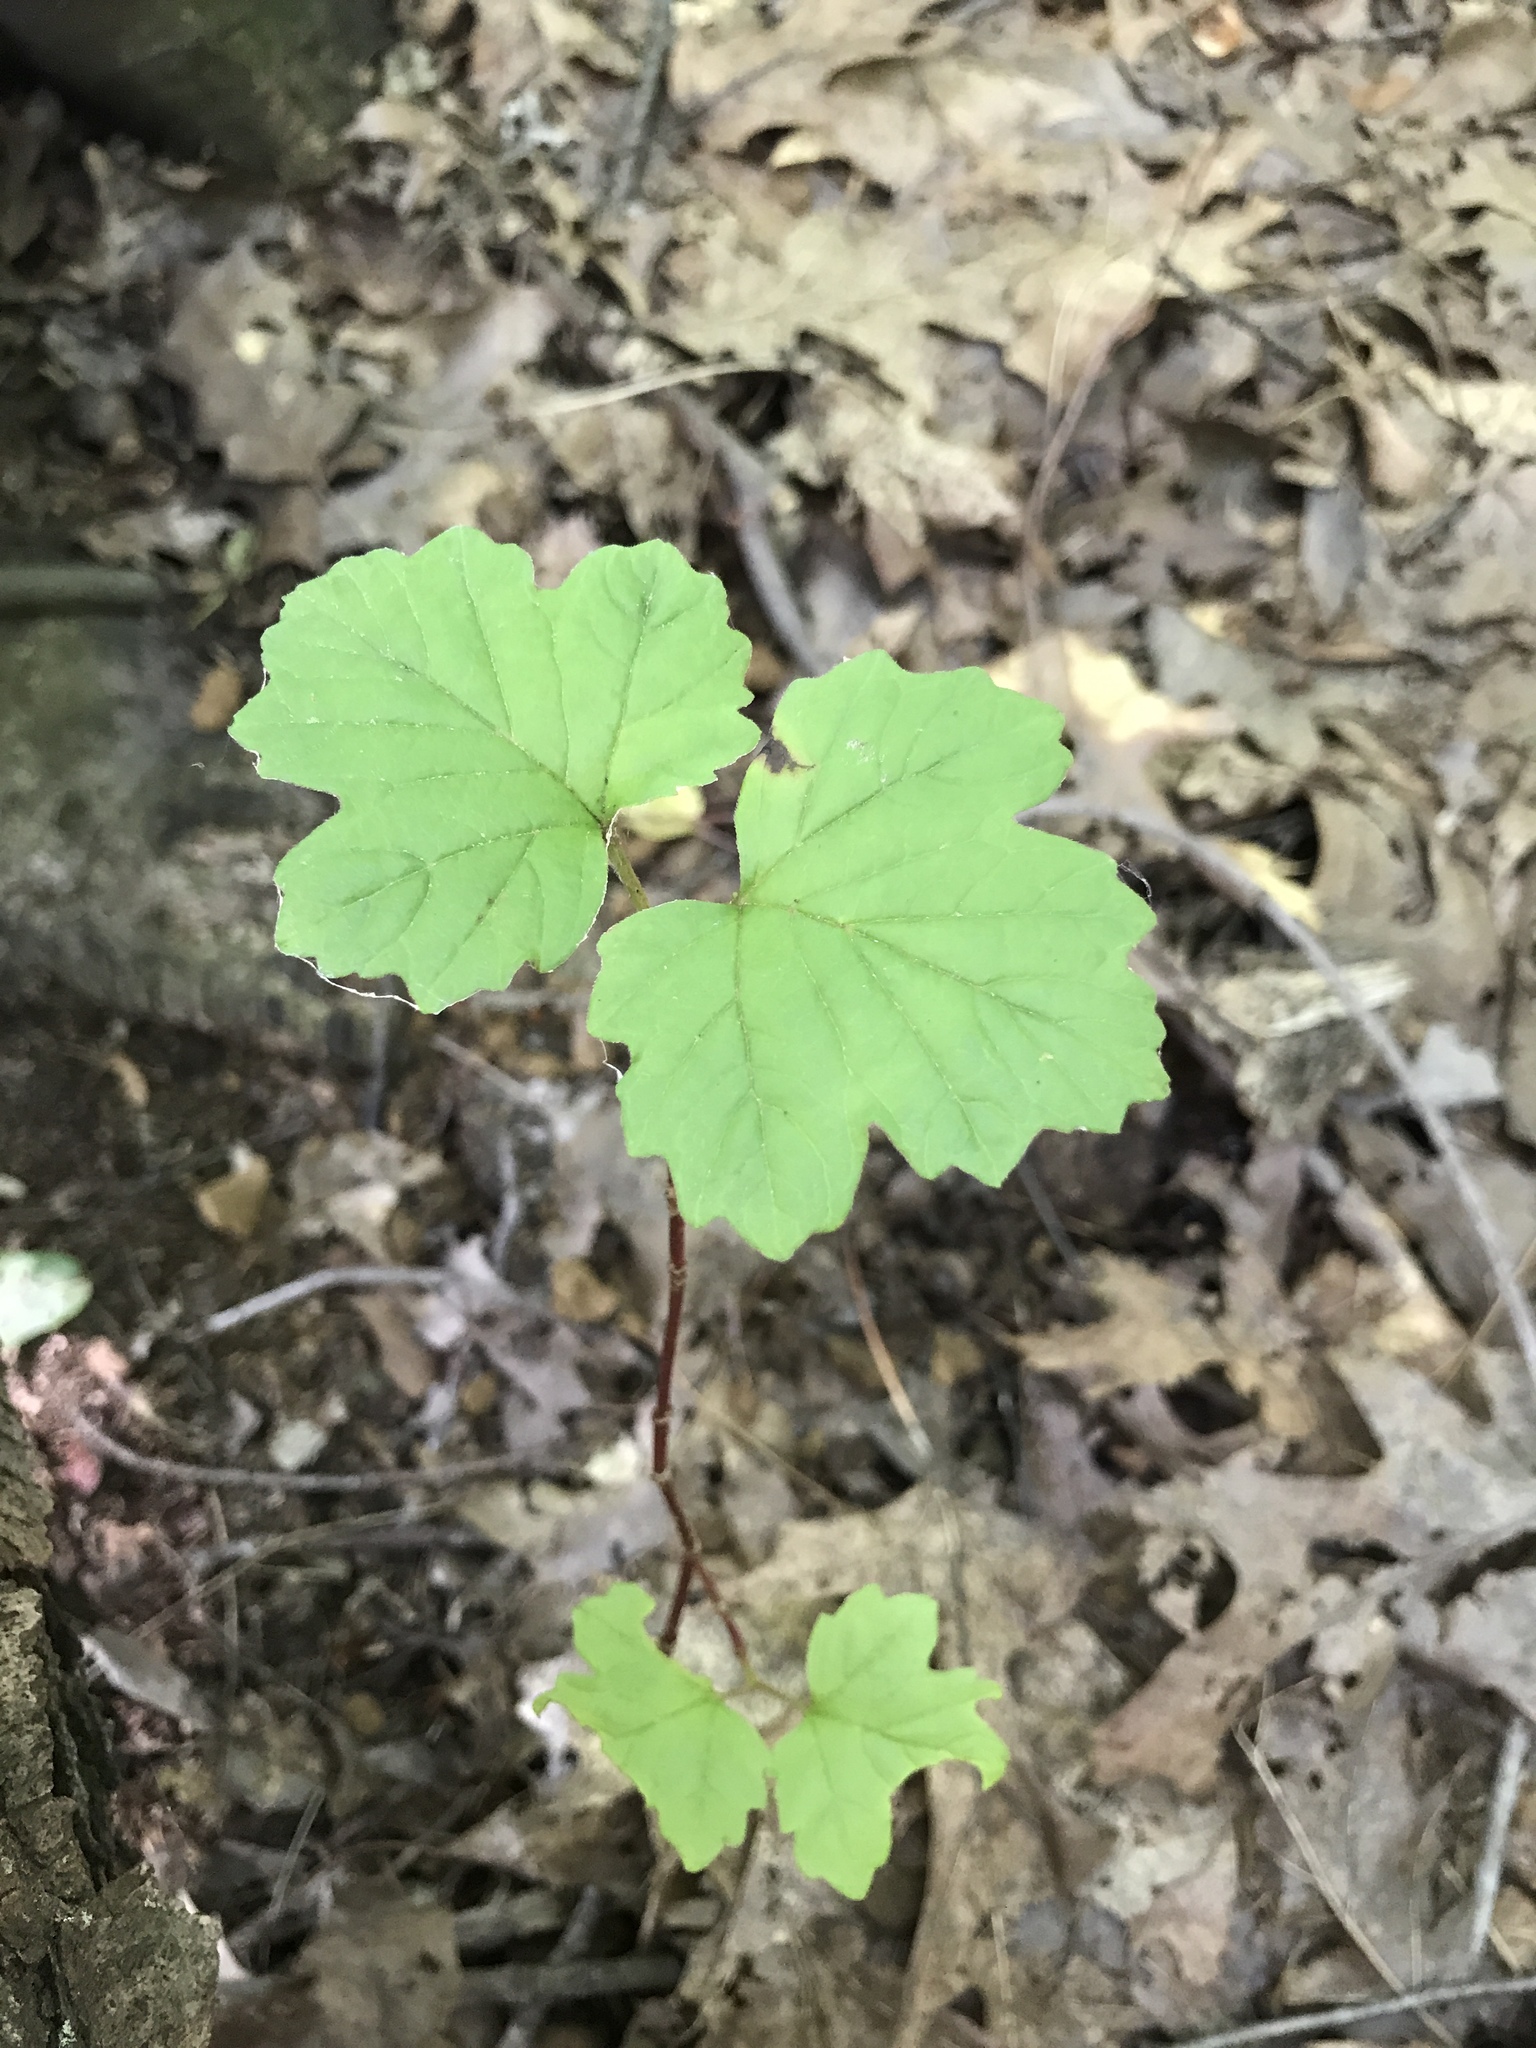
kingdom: Plantae
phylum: Tracheophyta
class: Magnoliopsida
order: Dipsacales
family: Viburnaceae
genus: Viburnum
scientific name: Viburnum opulus
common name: Guelder-rose
